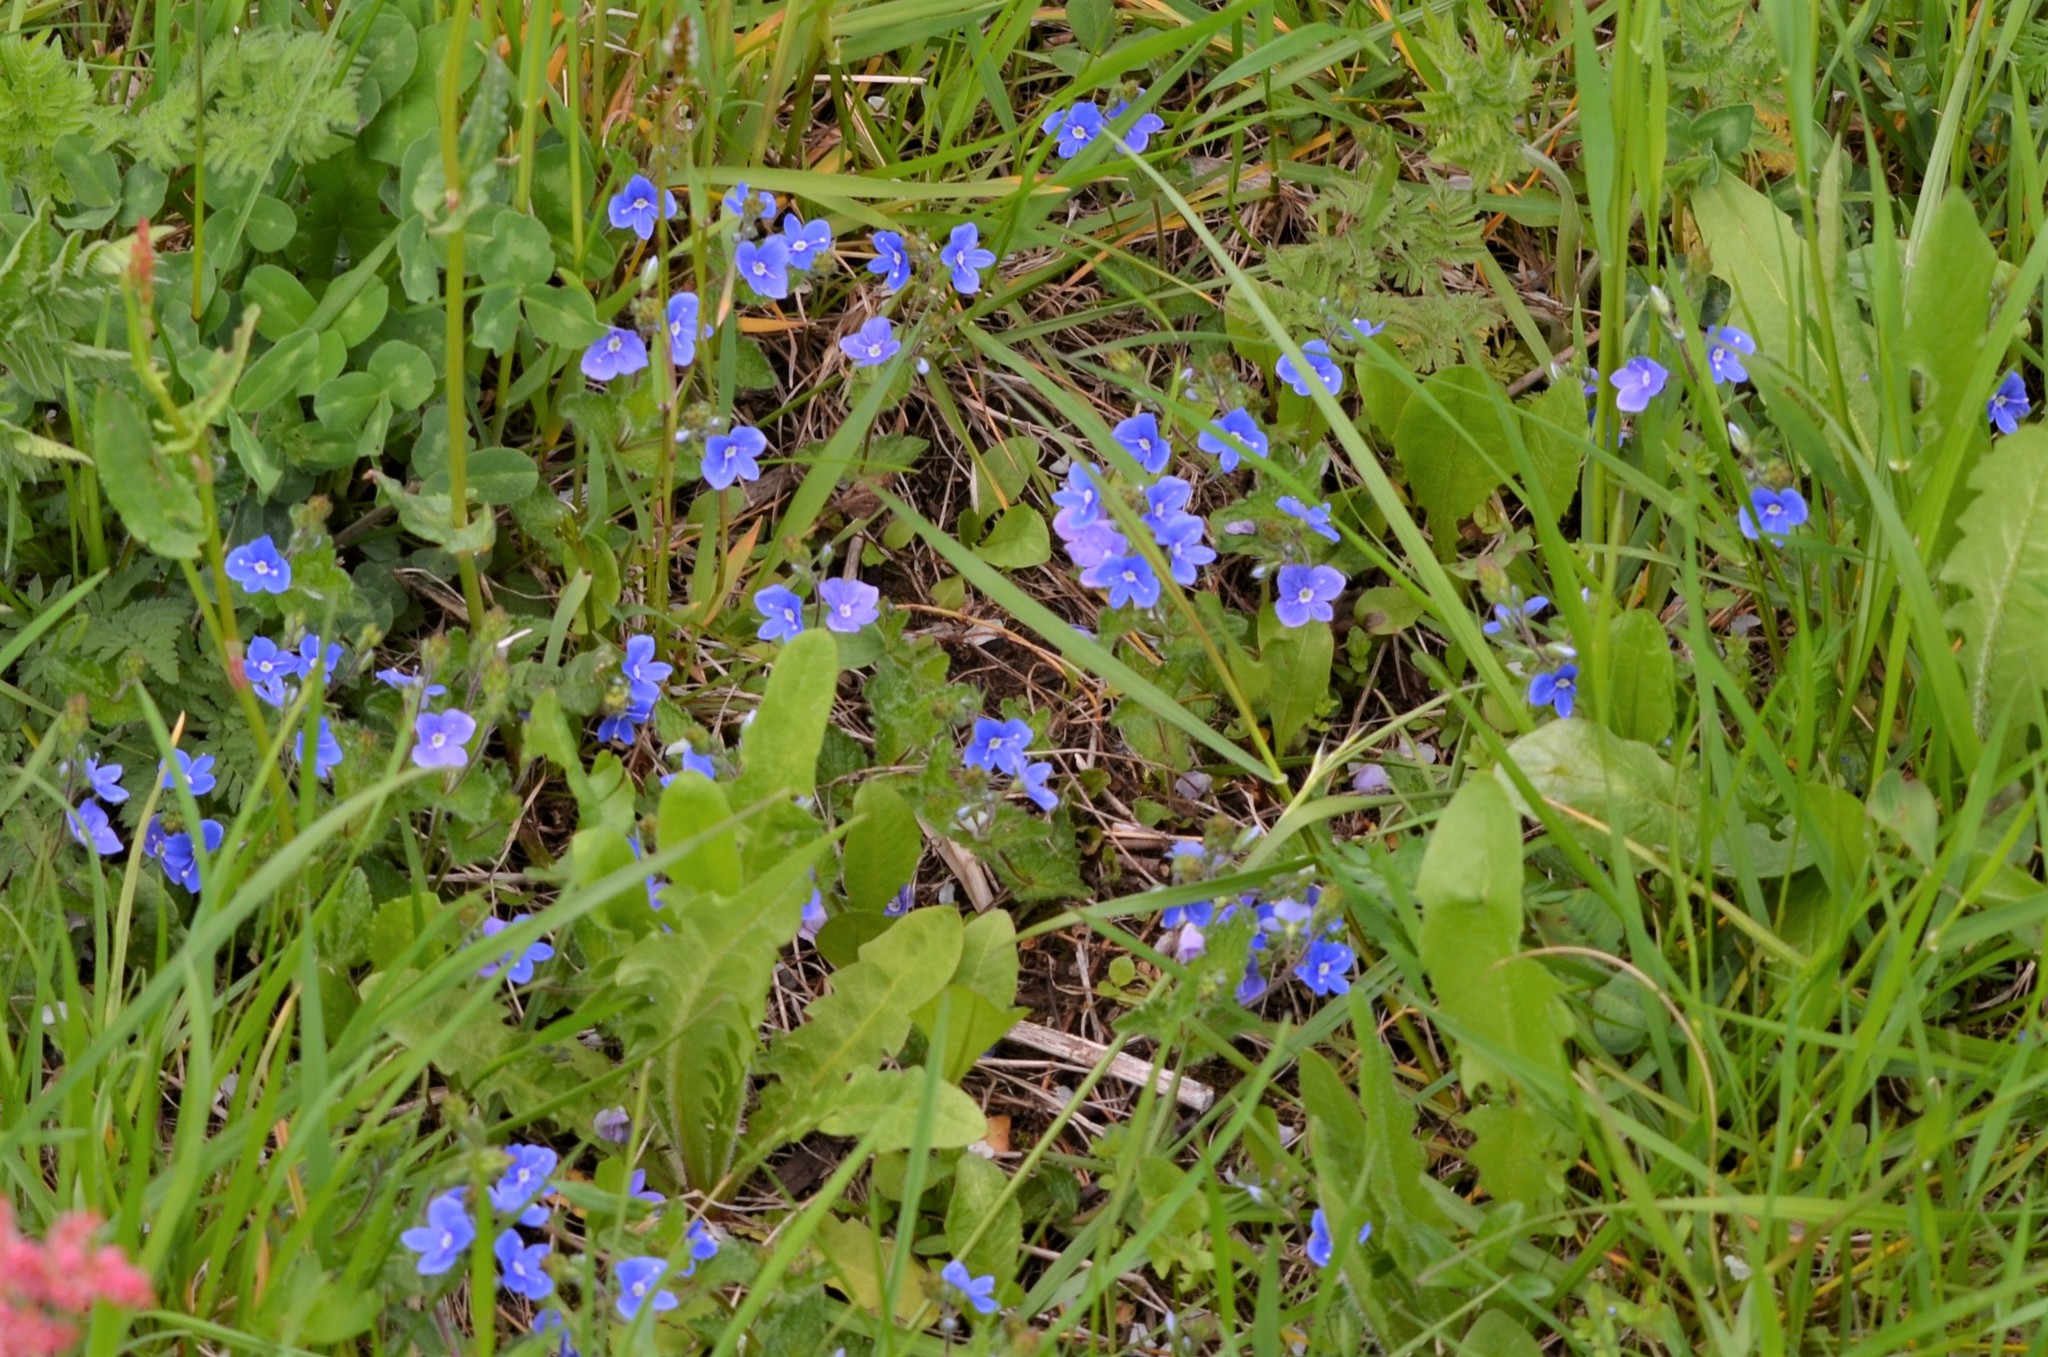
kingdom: Plantae
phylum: Tracheophyta
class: Magnoliopsida
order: Lamiales
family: Plantaginaceae
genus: Veronica
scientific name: Veronica chamaedrys
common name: Germander speedwell
